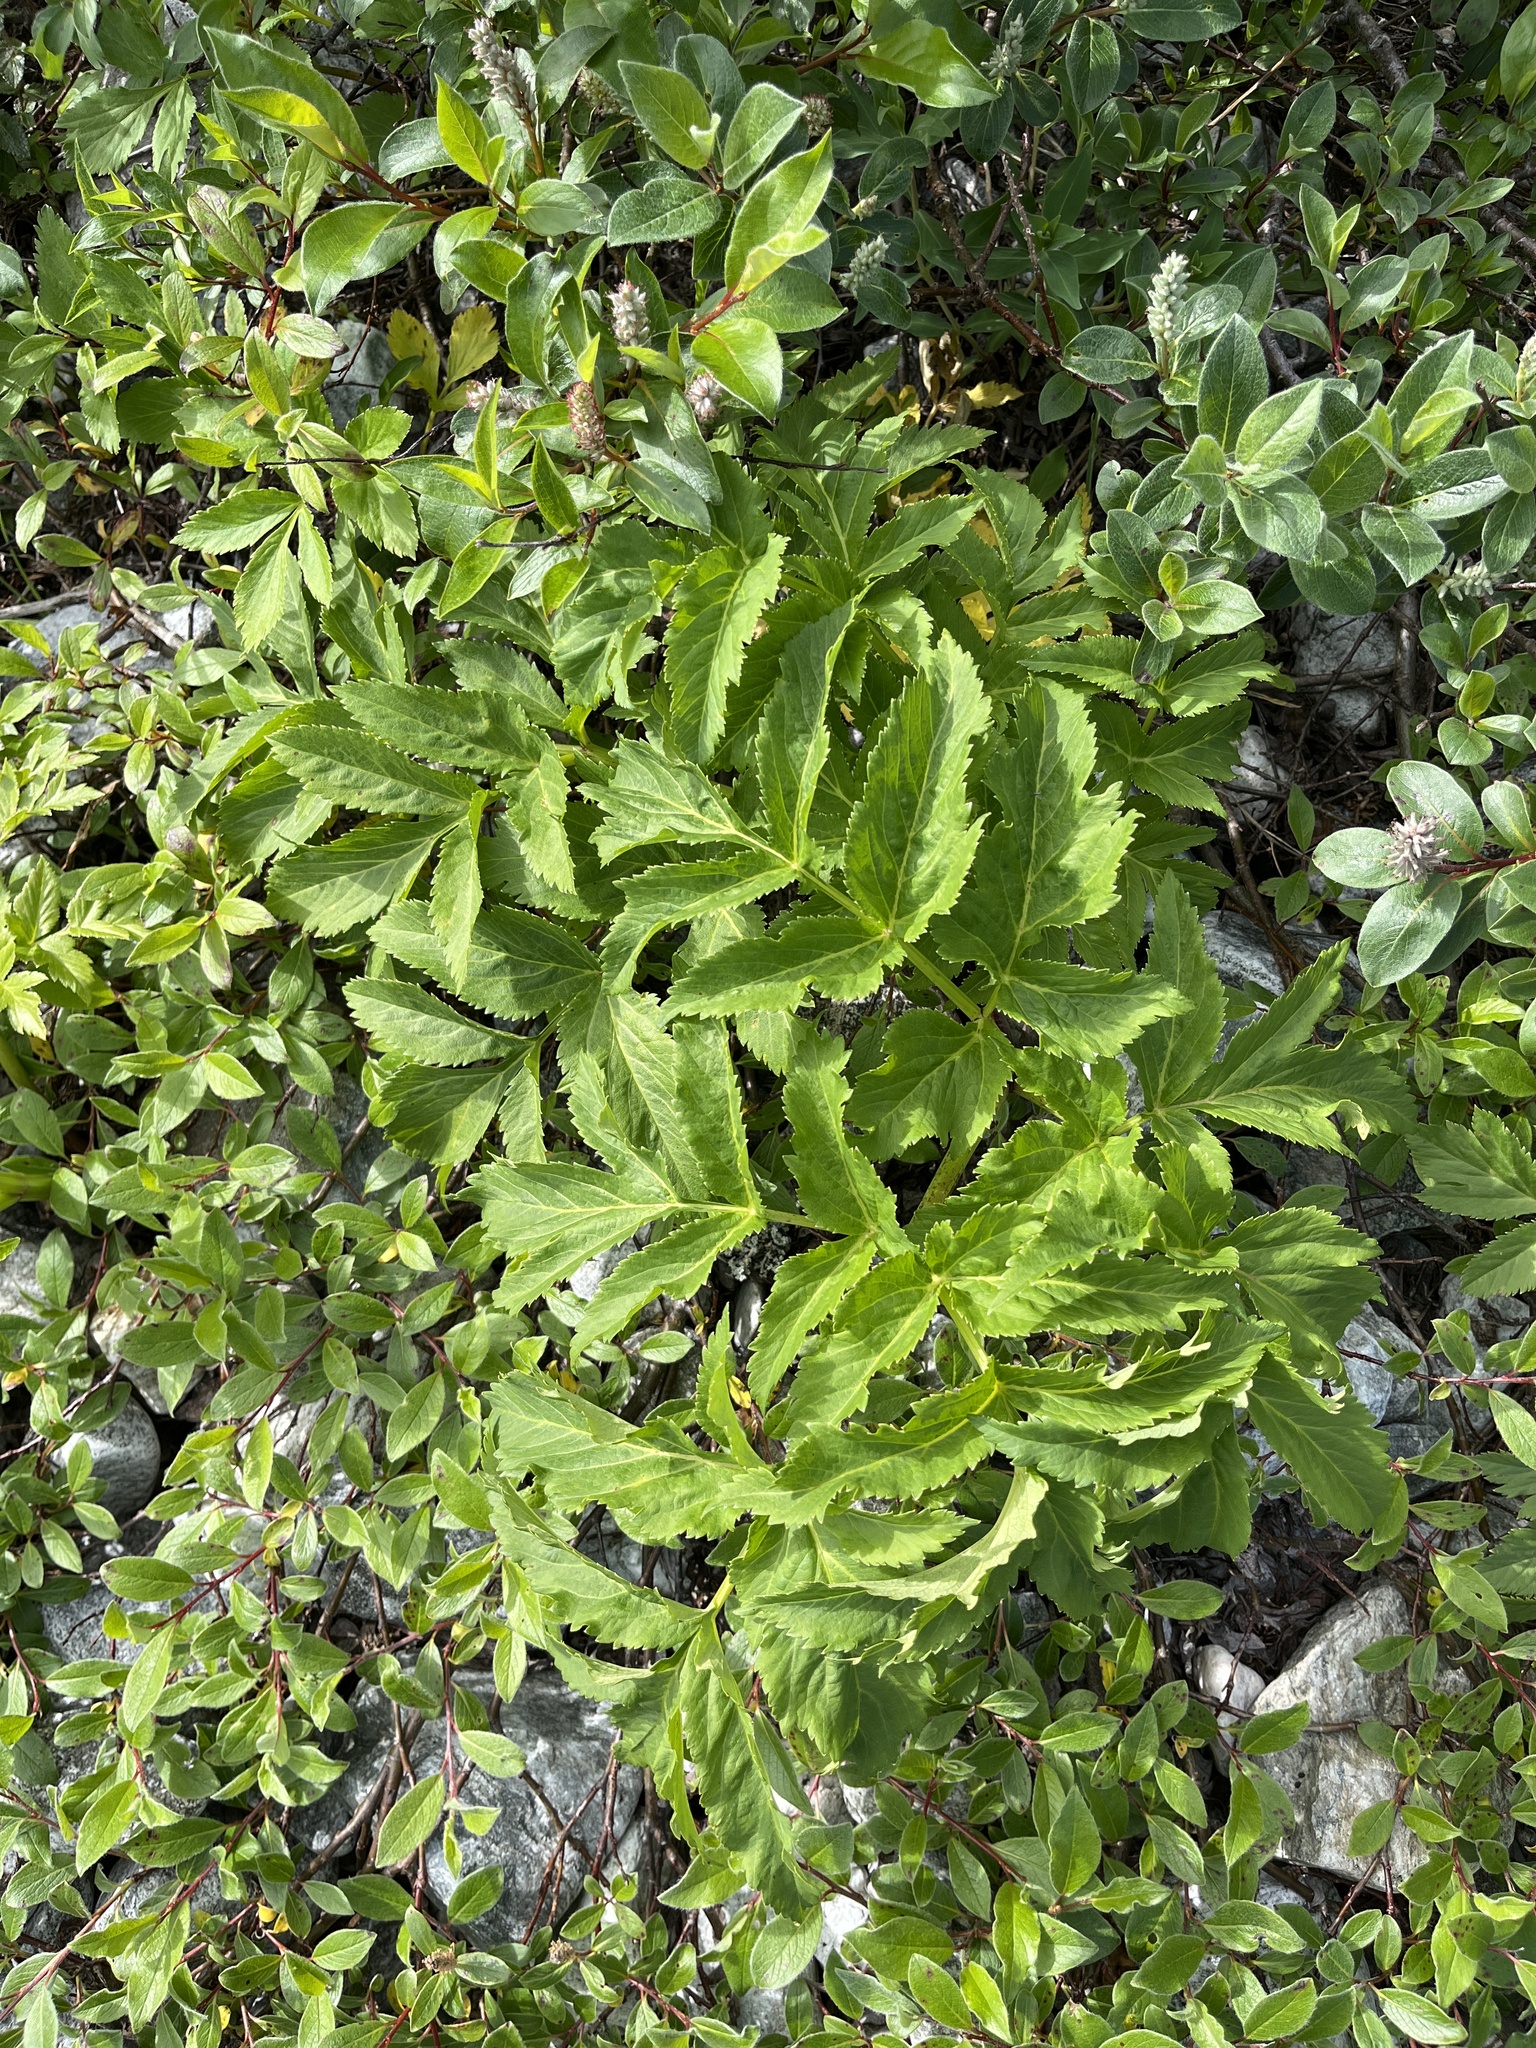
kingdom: Plantae
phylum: Tracheophyta
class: Magnoliopsida
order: Apiales
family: Apiaceae
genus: Angelica
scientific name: Angelica archangelica
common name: Garden angelica
